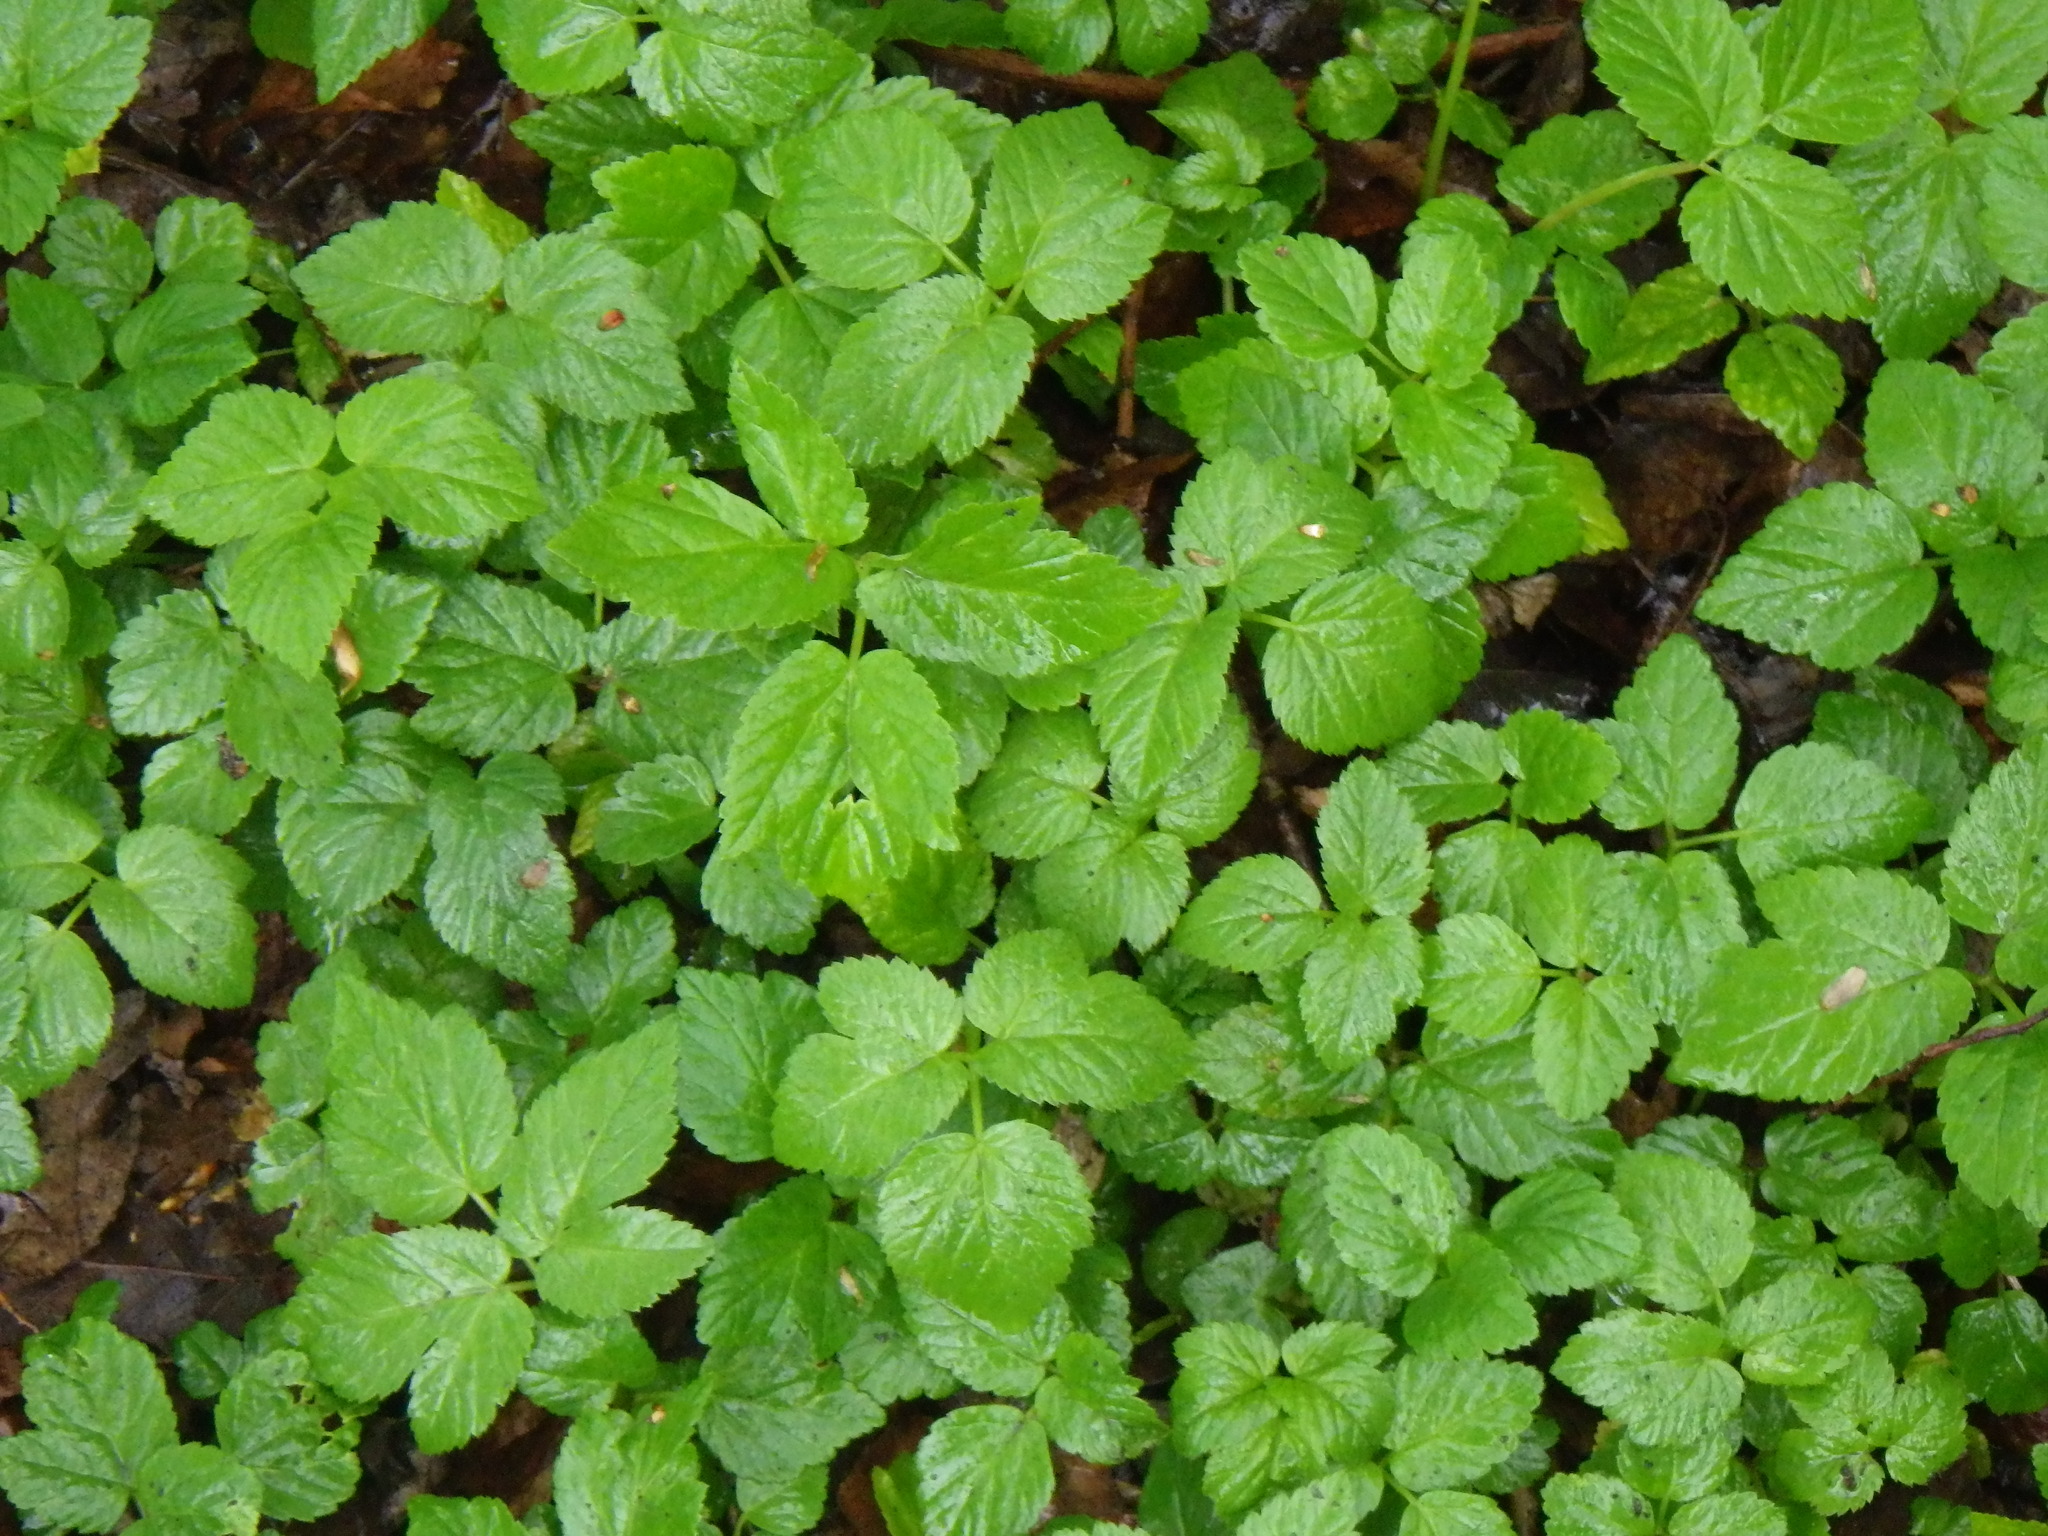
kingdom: Plantae
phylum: Tracheophyta
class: Magnoliopsida
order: Apiales
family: Apiaceae
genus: Aegopodium
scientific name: Aegopodium podagraria
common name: Ground-elder
